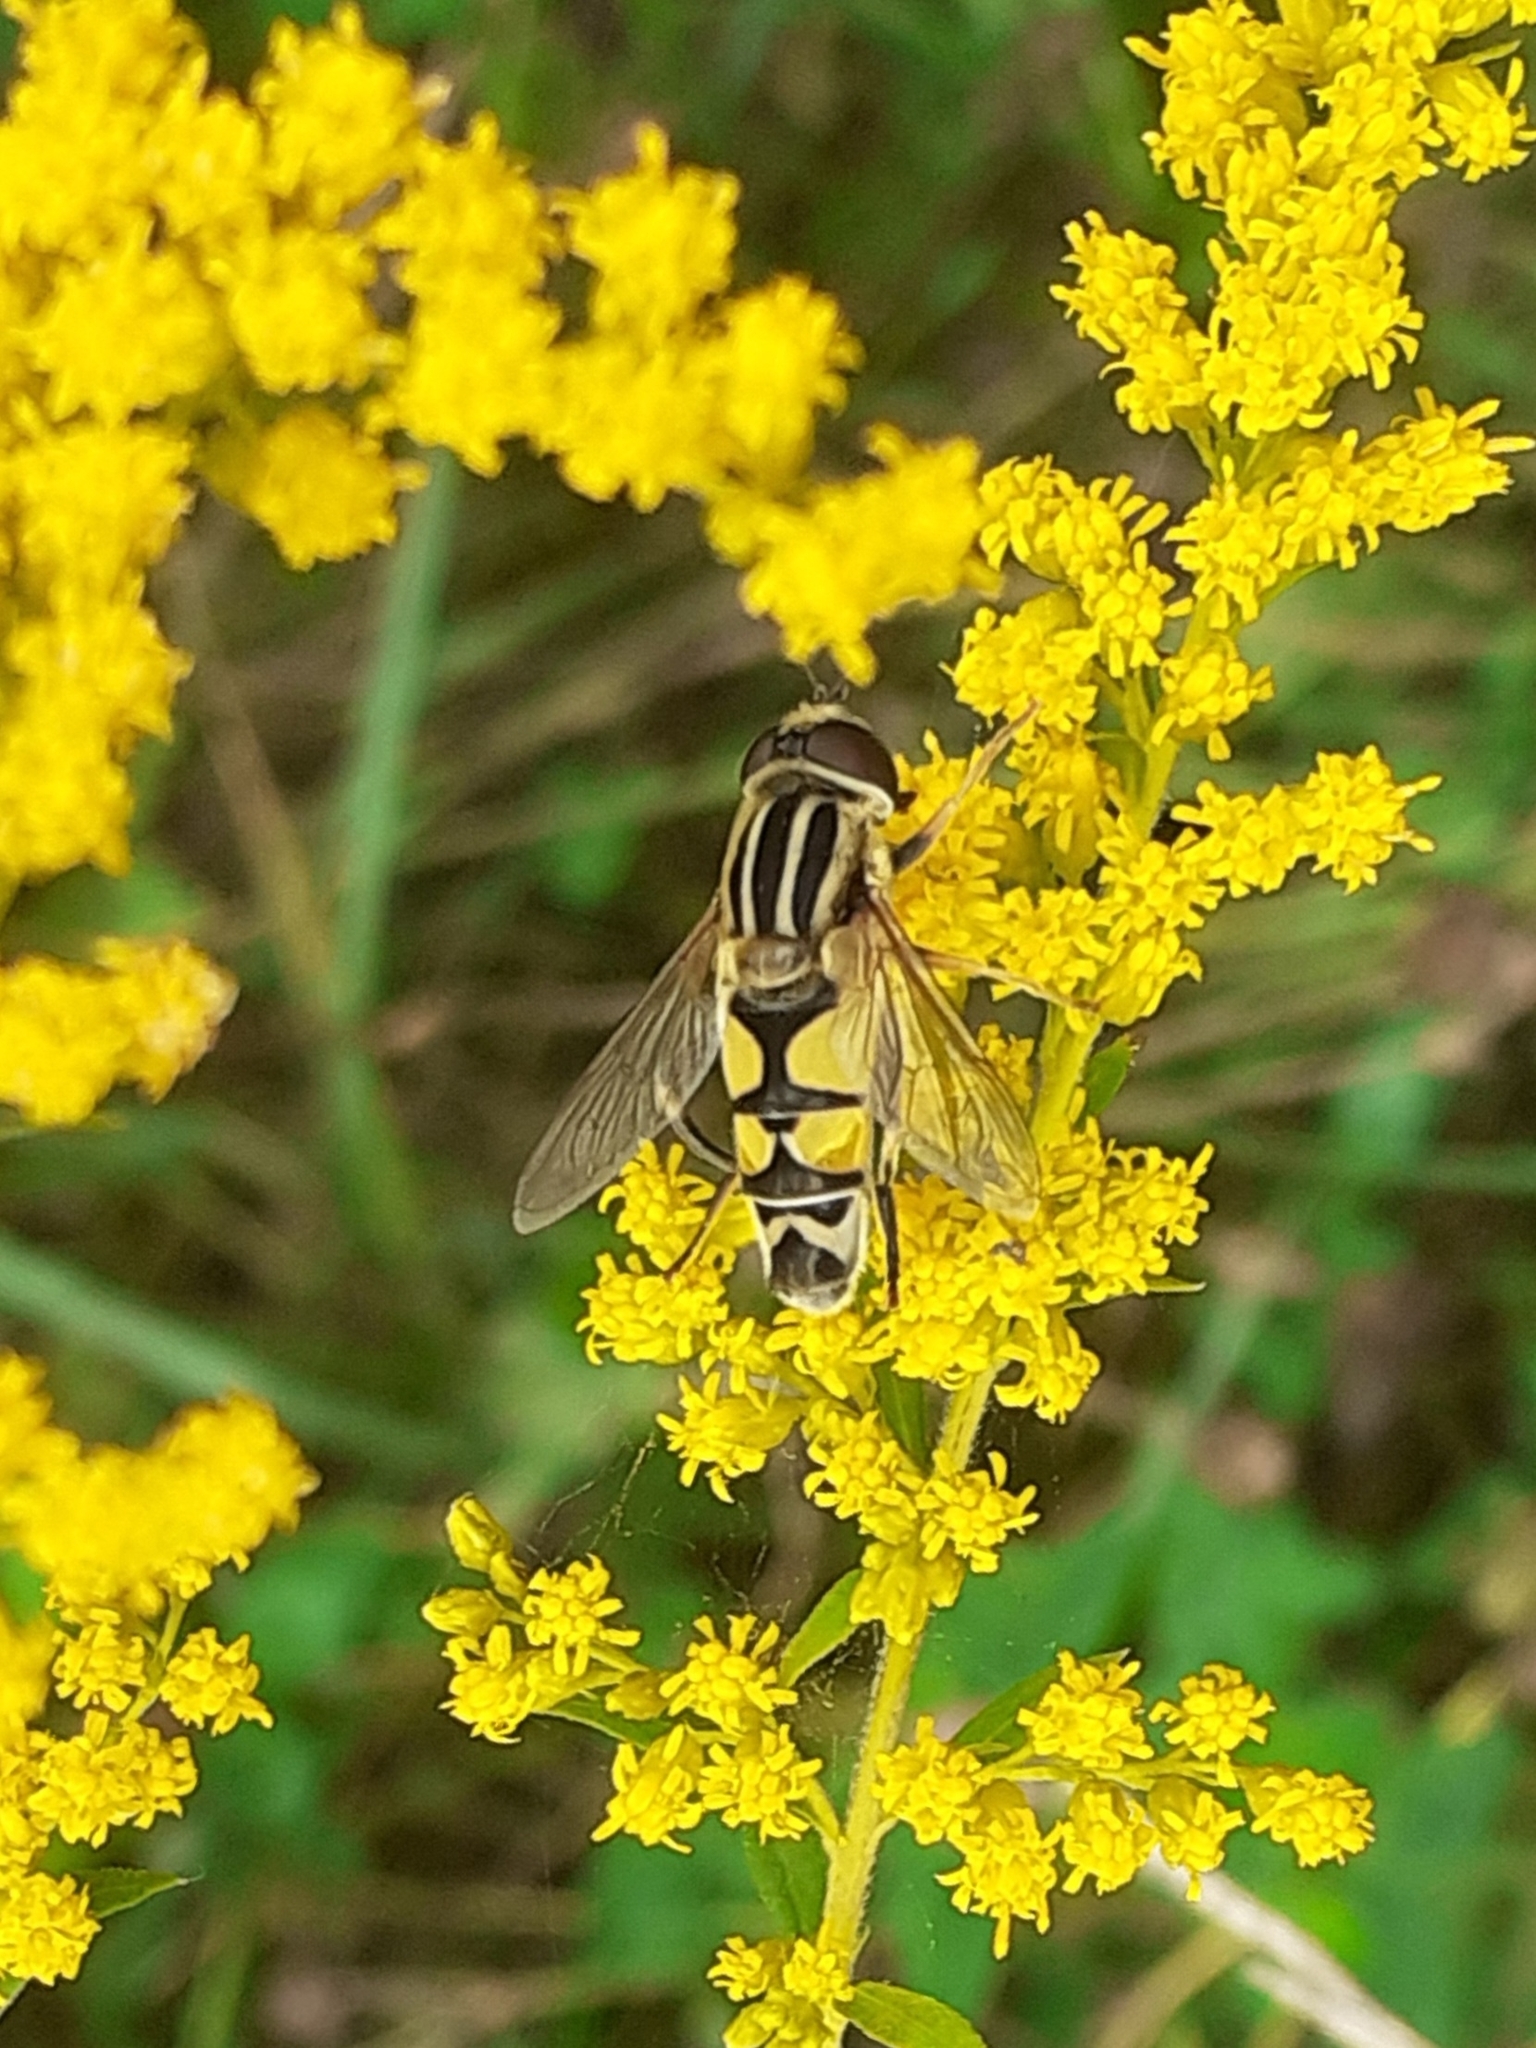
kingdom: Animalia
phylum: Arthropoda
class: Insecta
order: Diptera
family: Syrphidae
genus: Helophilus
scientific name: Helophilus trivittatus
